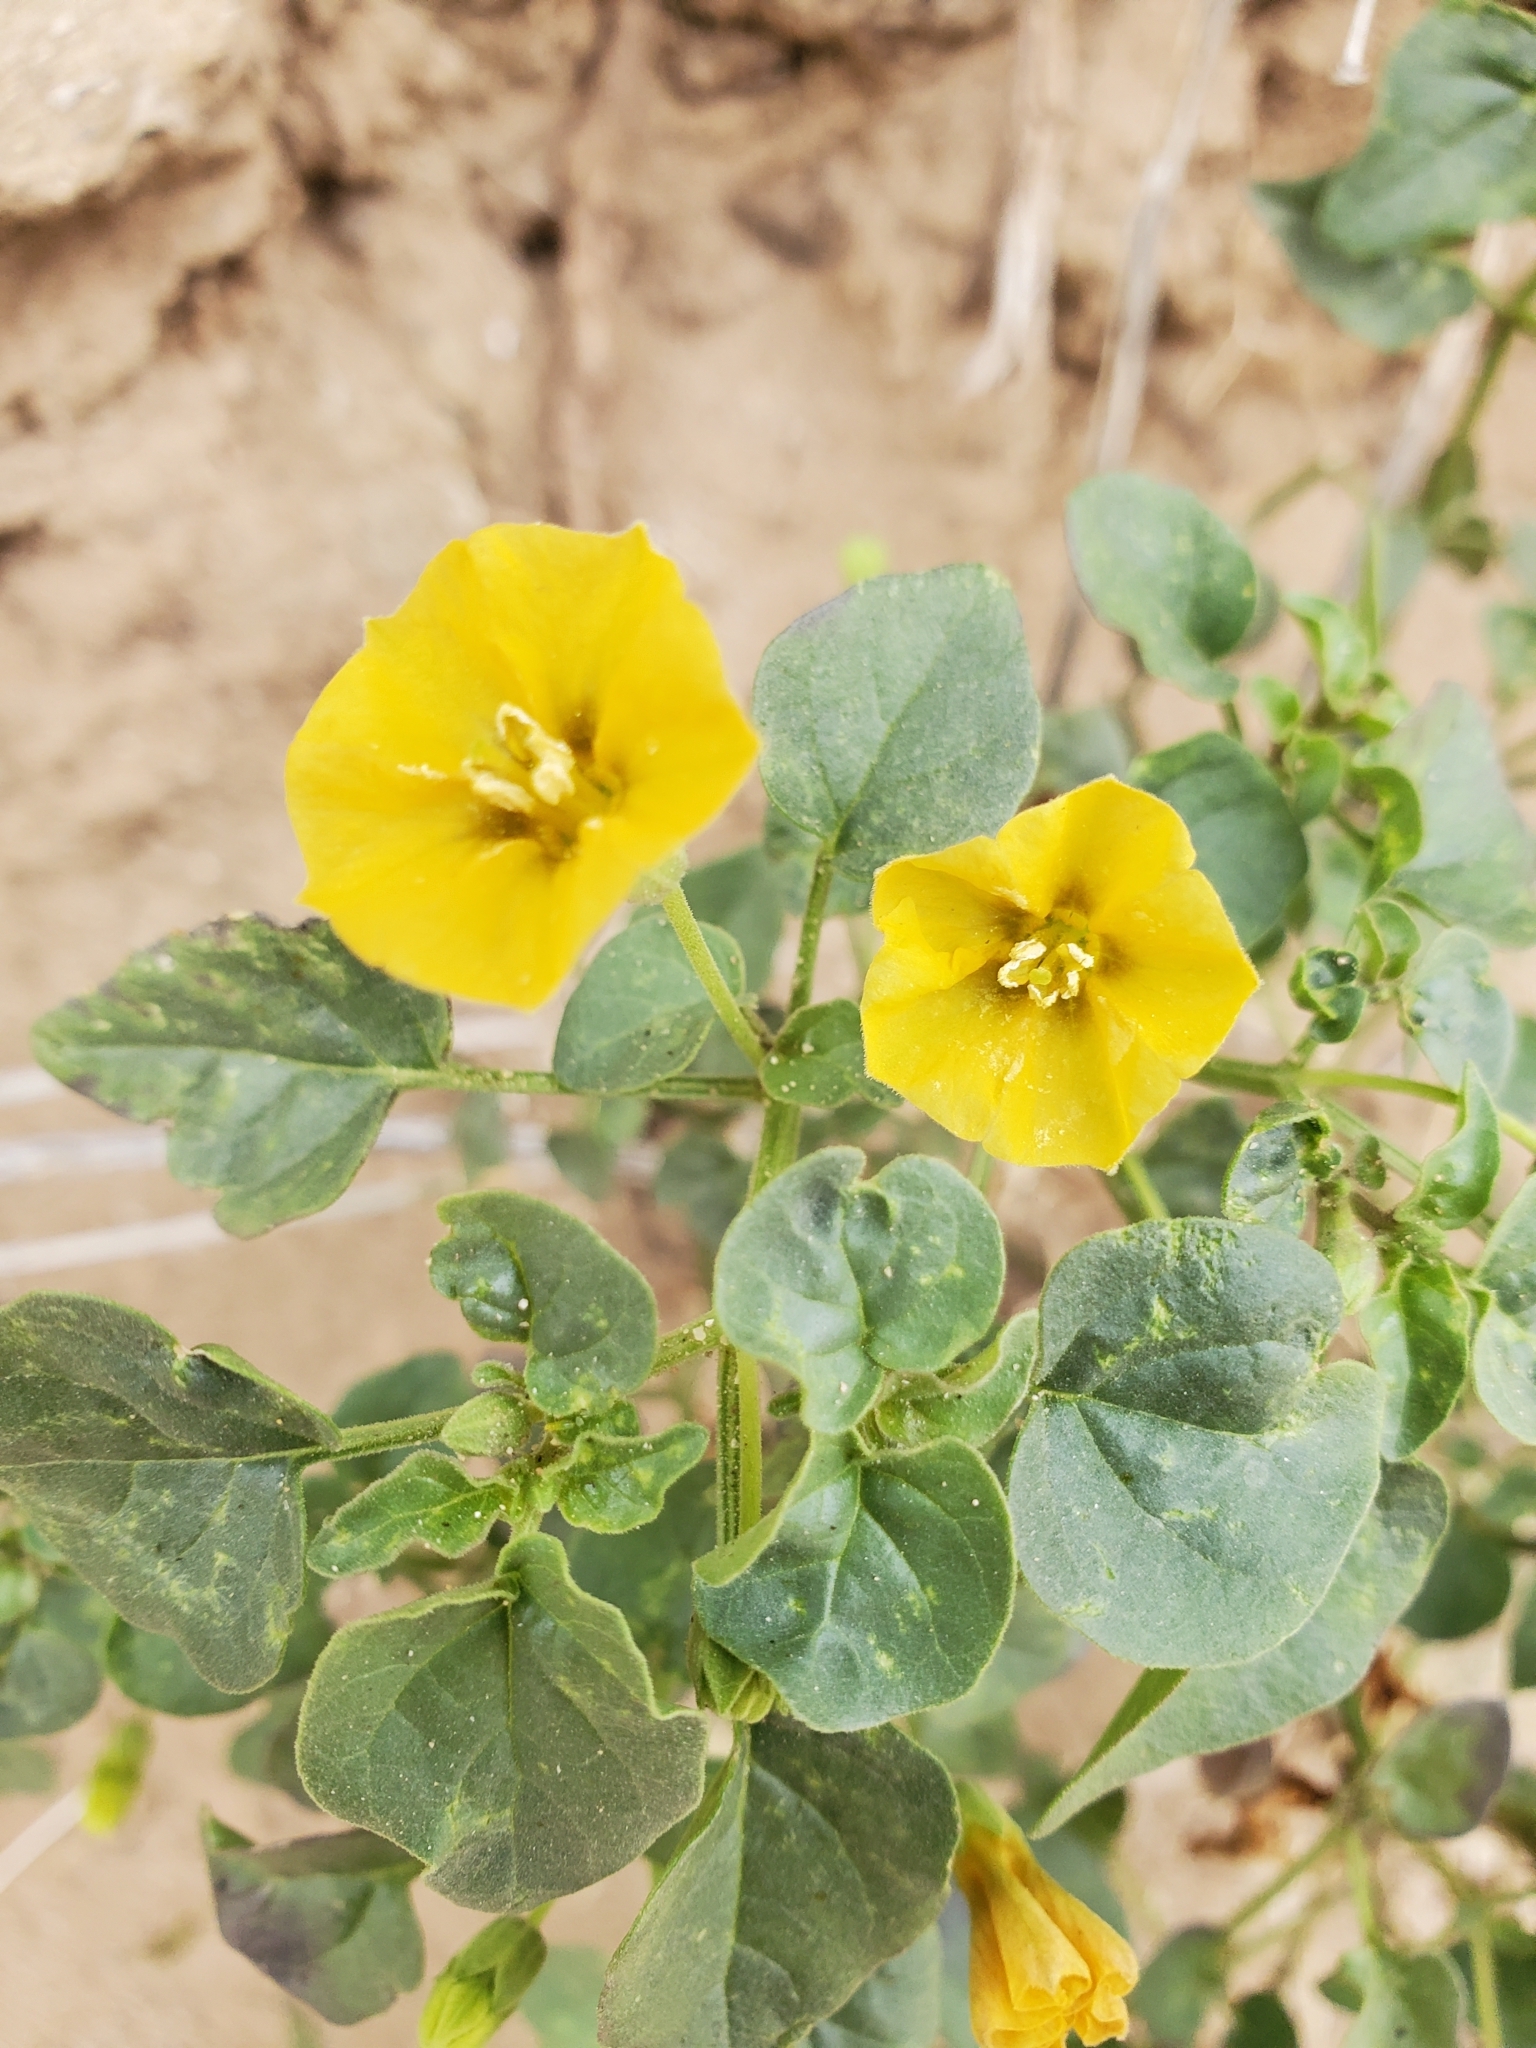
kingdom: Plantae
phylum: Tracheophyta
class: Magnoliopsida
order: Solanales
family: Solanaceae
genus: Physalis
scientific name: Physalis crassifolia
